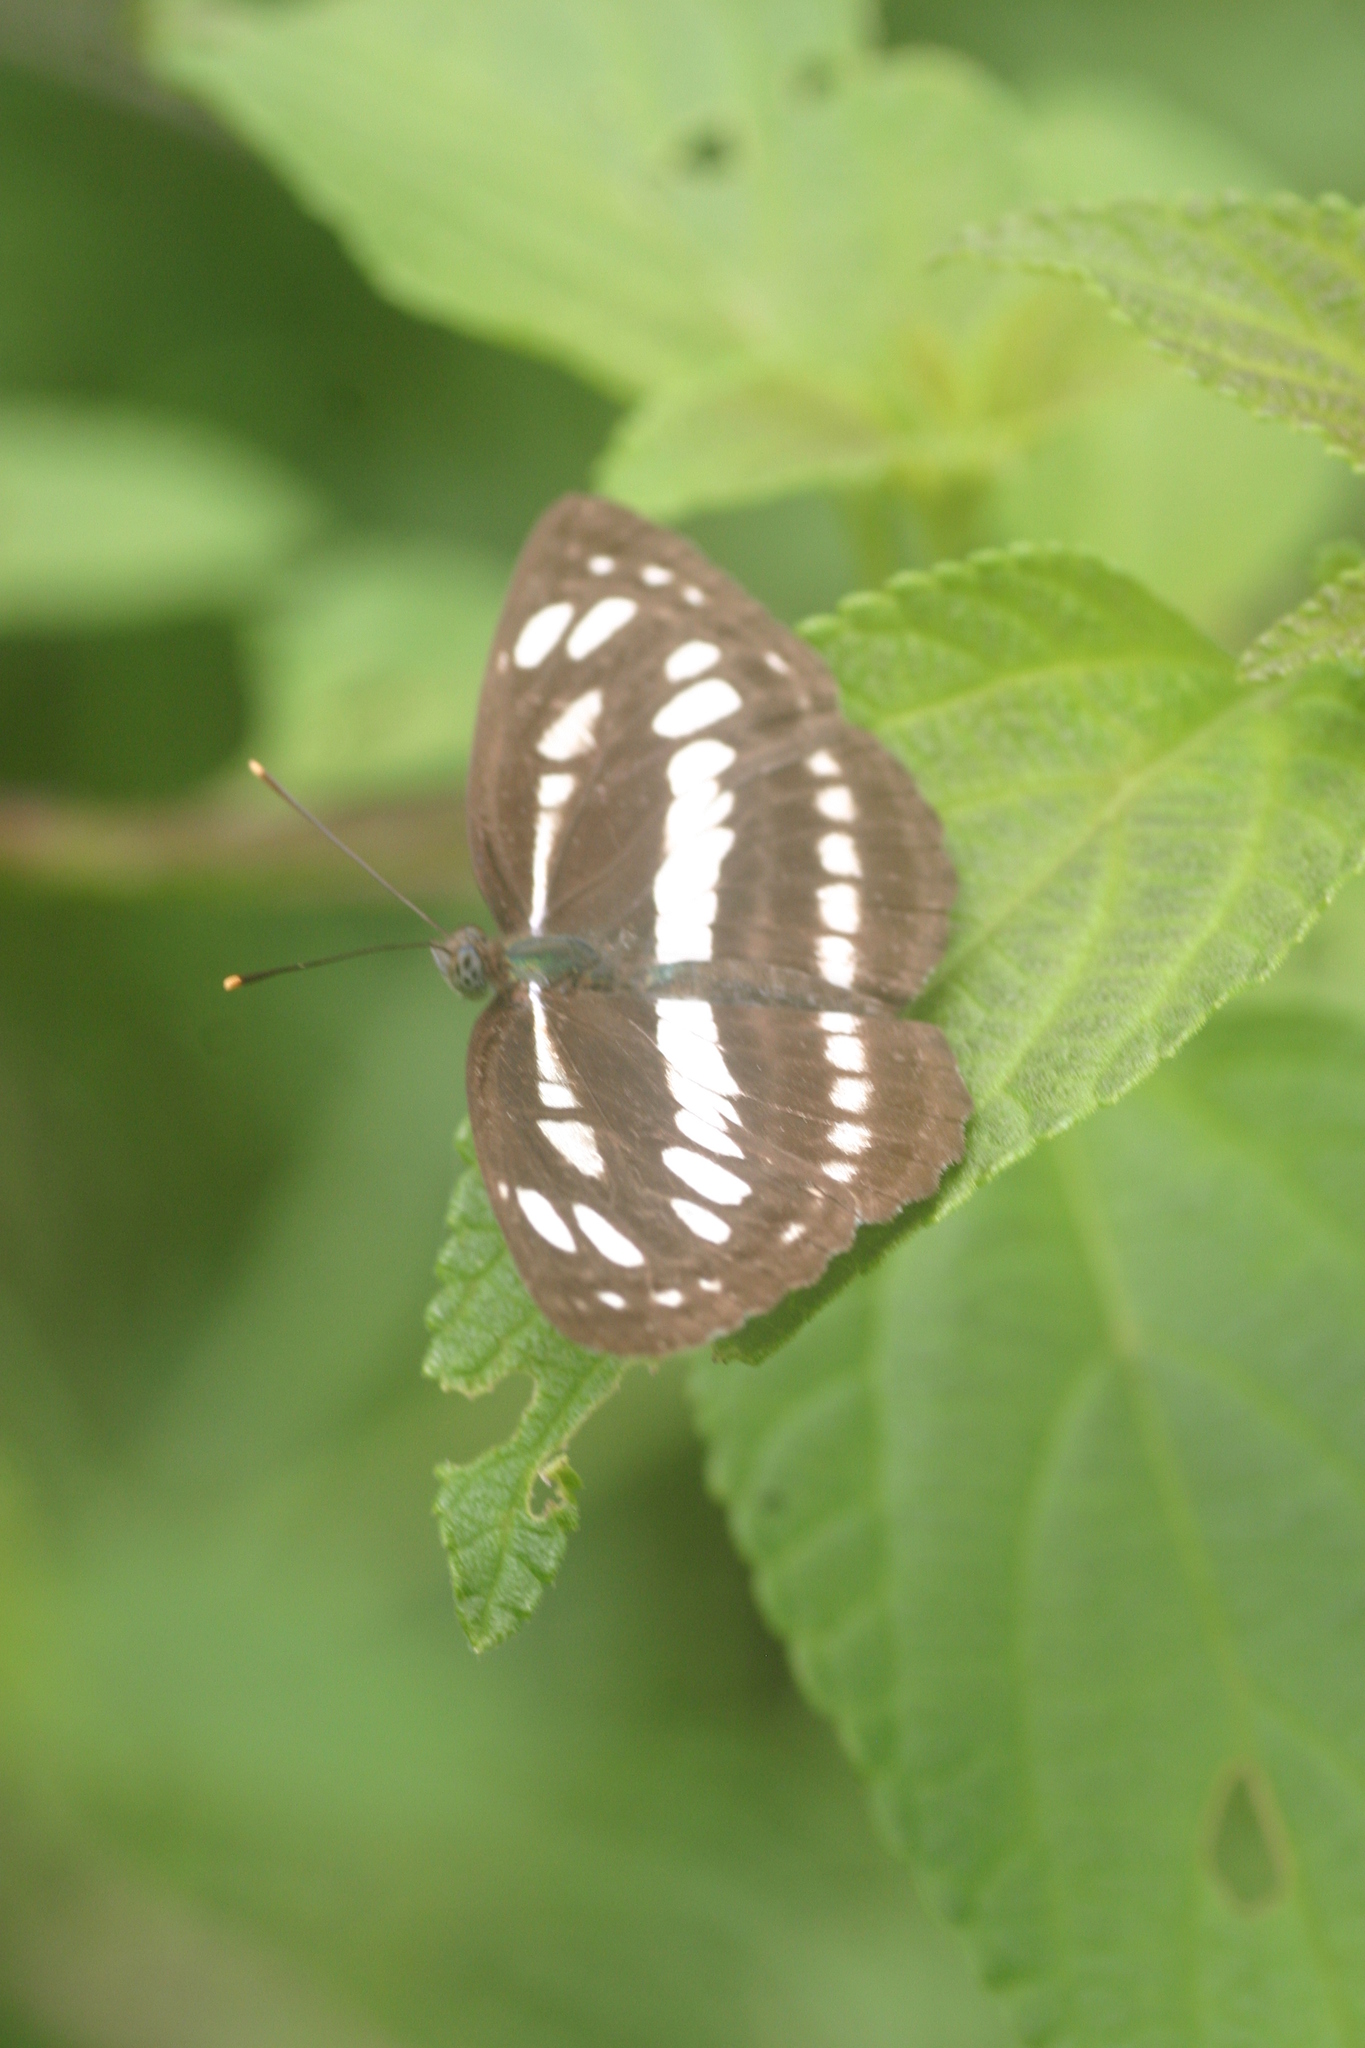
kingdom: Animalia
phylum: Arthropoda
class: Insecta
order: Lepidoptera
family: Nymphalidae
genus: Neptis
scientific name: Neptis hylas
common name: Common sailer
